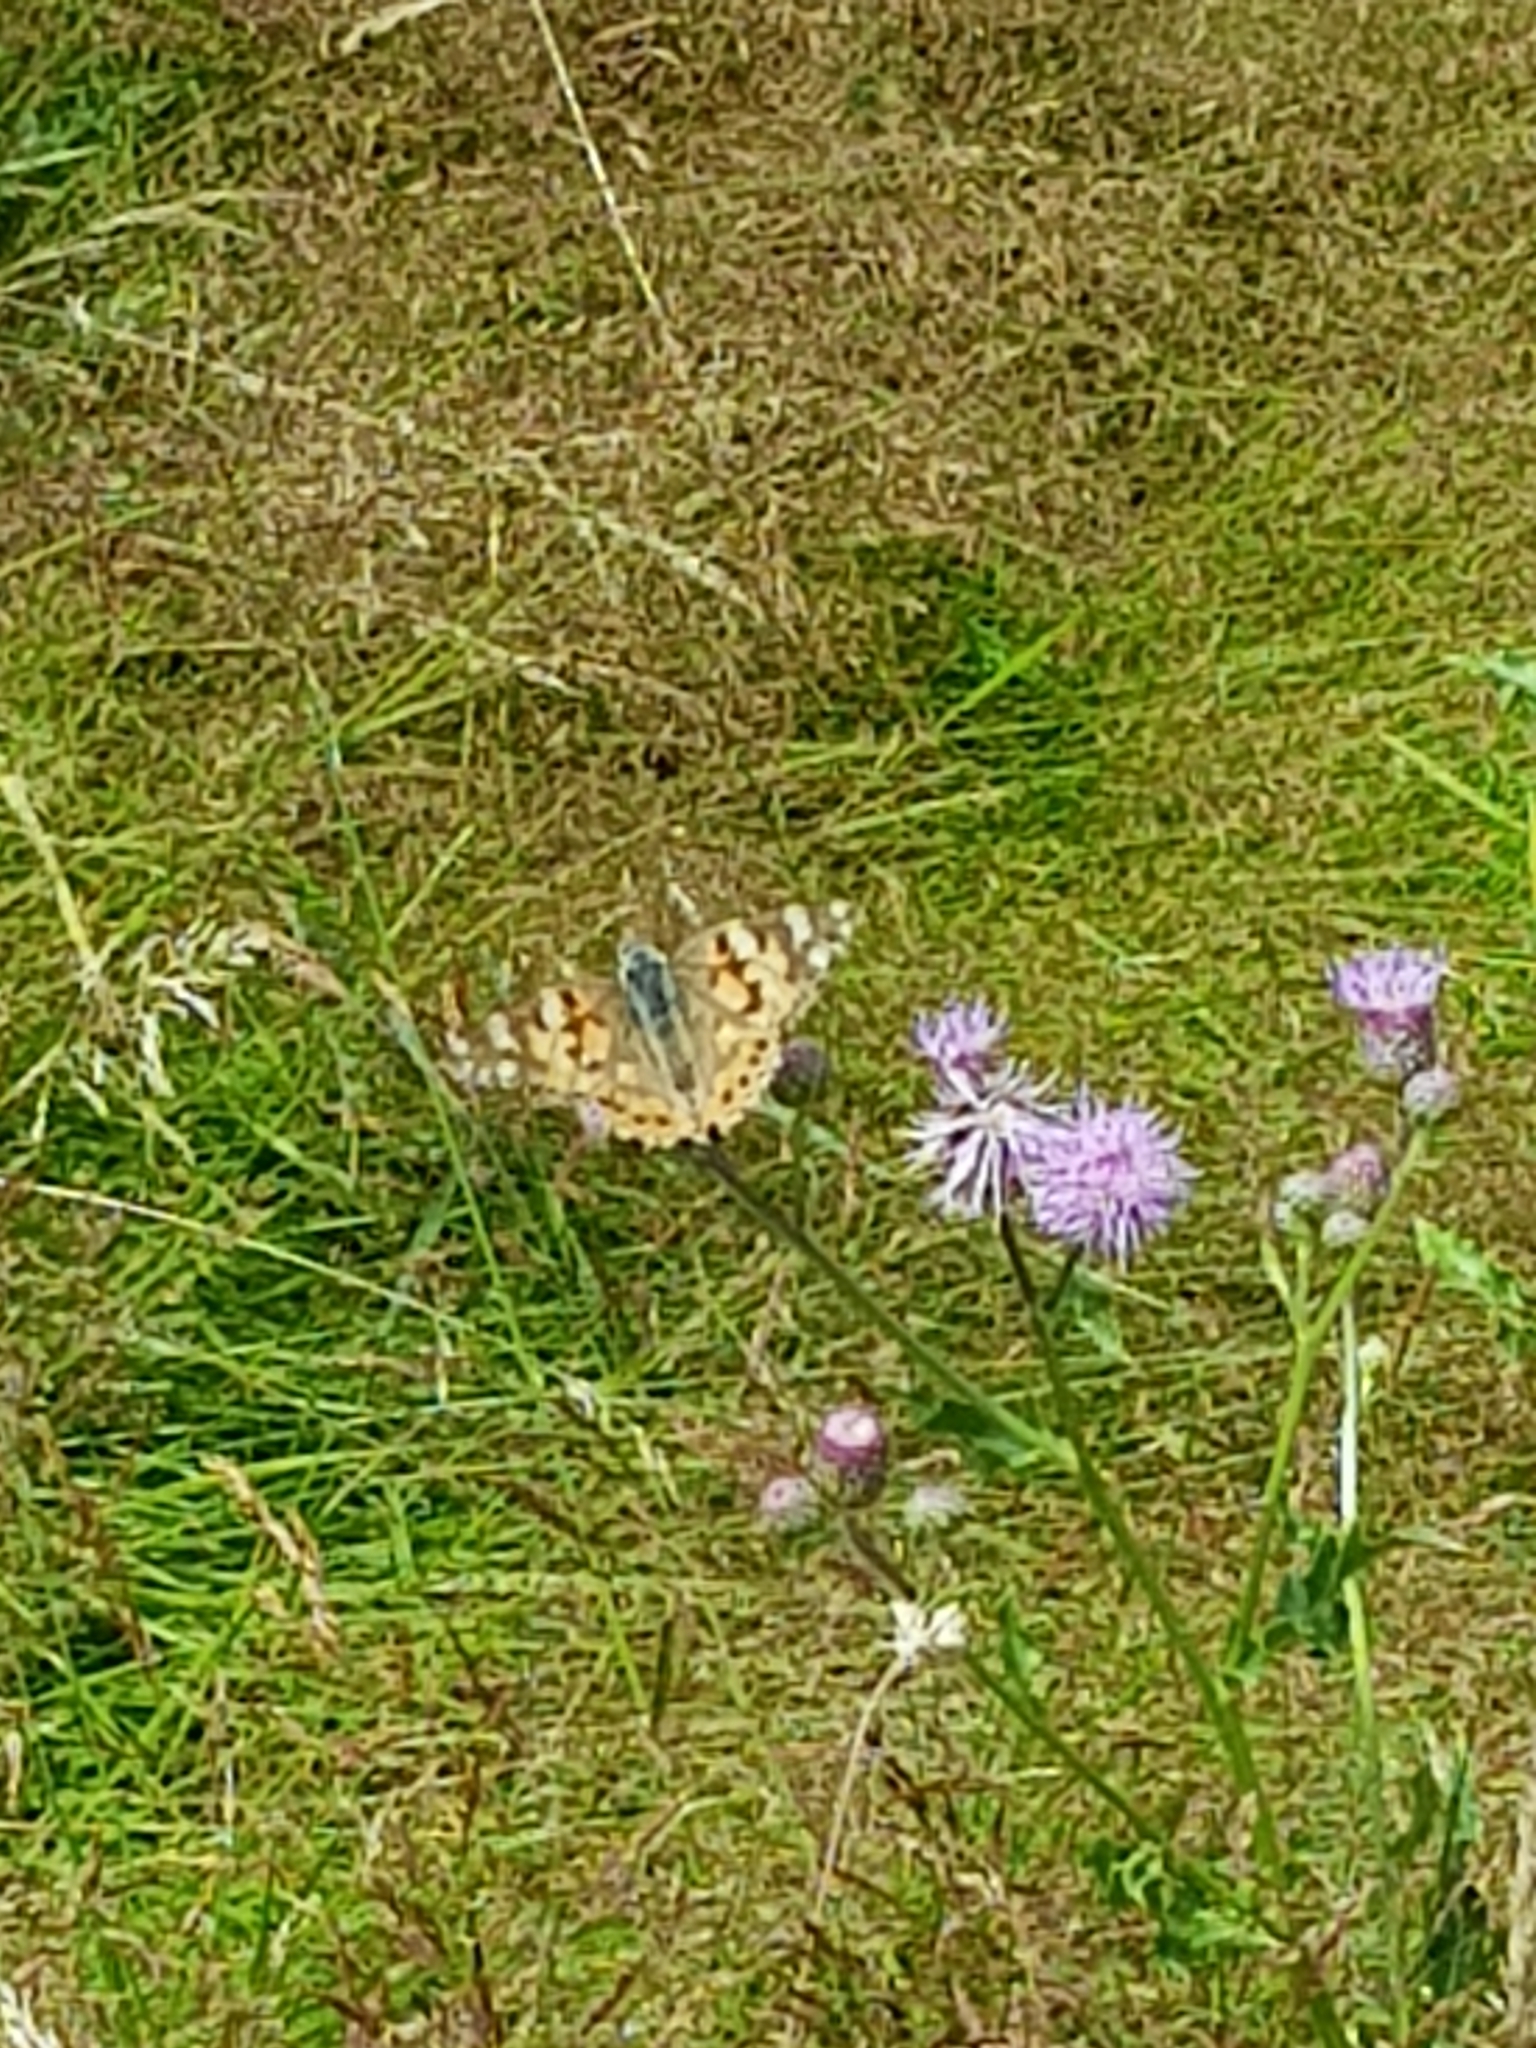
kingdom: Animalia
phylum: Arthropoda
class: Insecta
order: Lepidoptera
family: Nymphalidae
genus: Vanessa
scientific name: Vanessa cardui
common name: Painted lady
